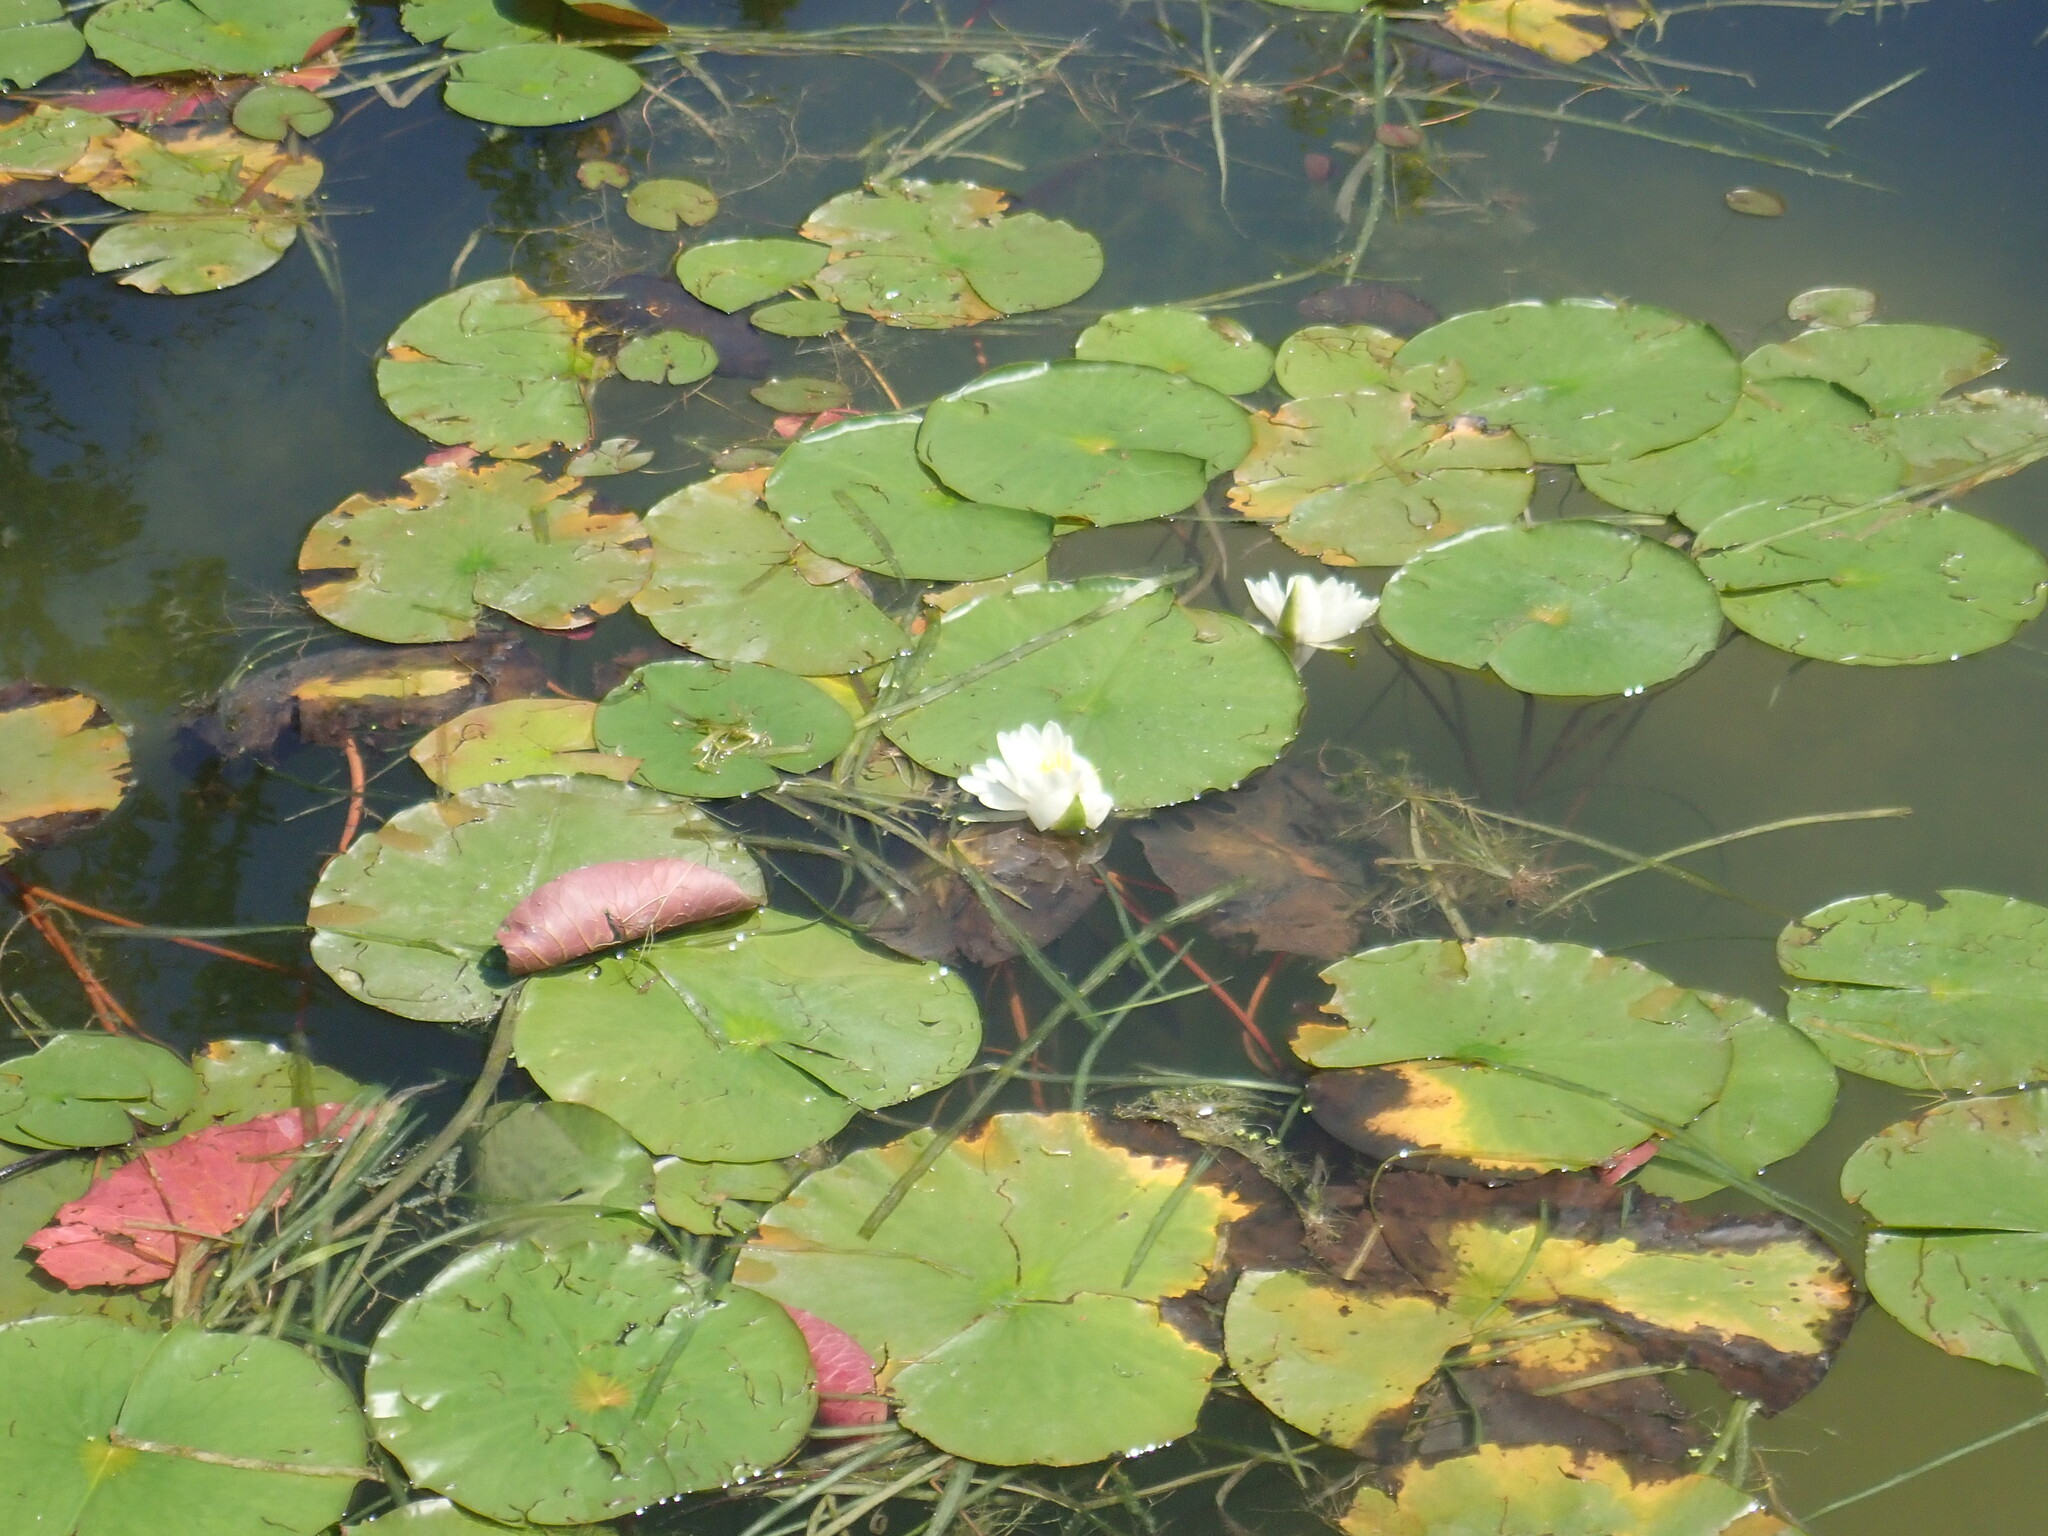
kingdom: Plantae
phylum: Tracheophyta
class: Magnoliopsida
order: Nymphaeales
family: Nymphaeaceae
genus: Nymphaea
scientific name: Nymphaea odorata
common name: Fragrant water-lily
